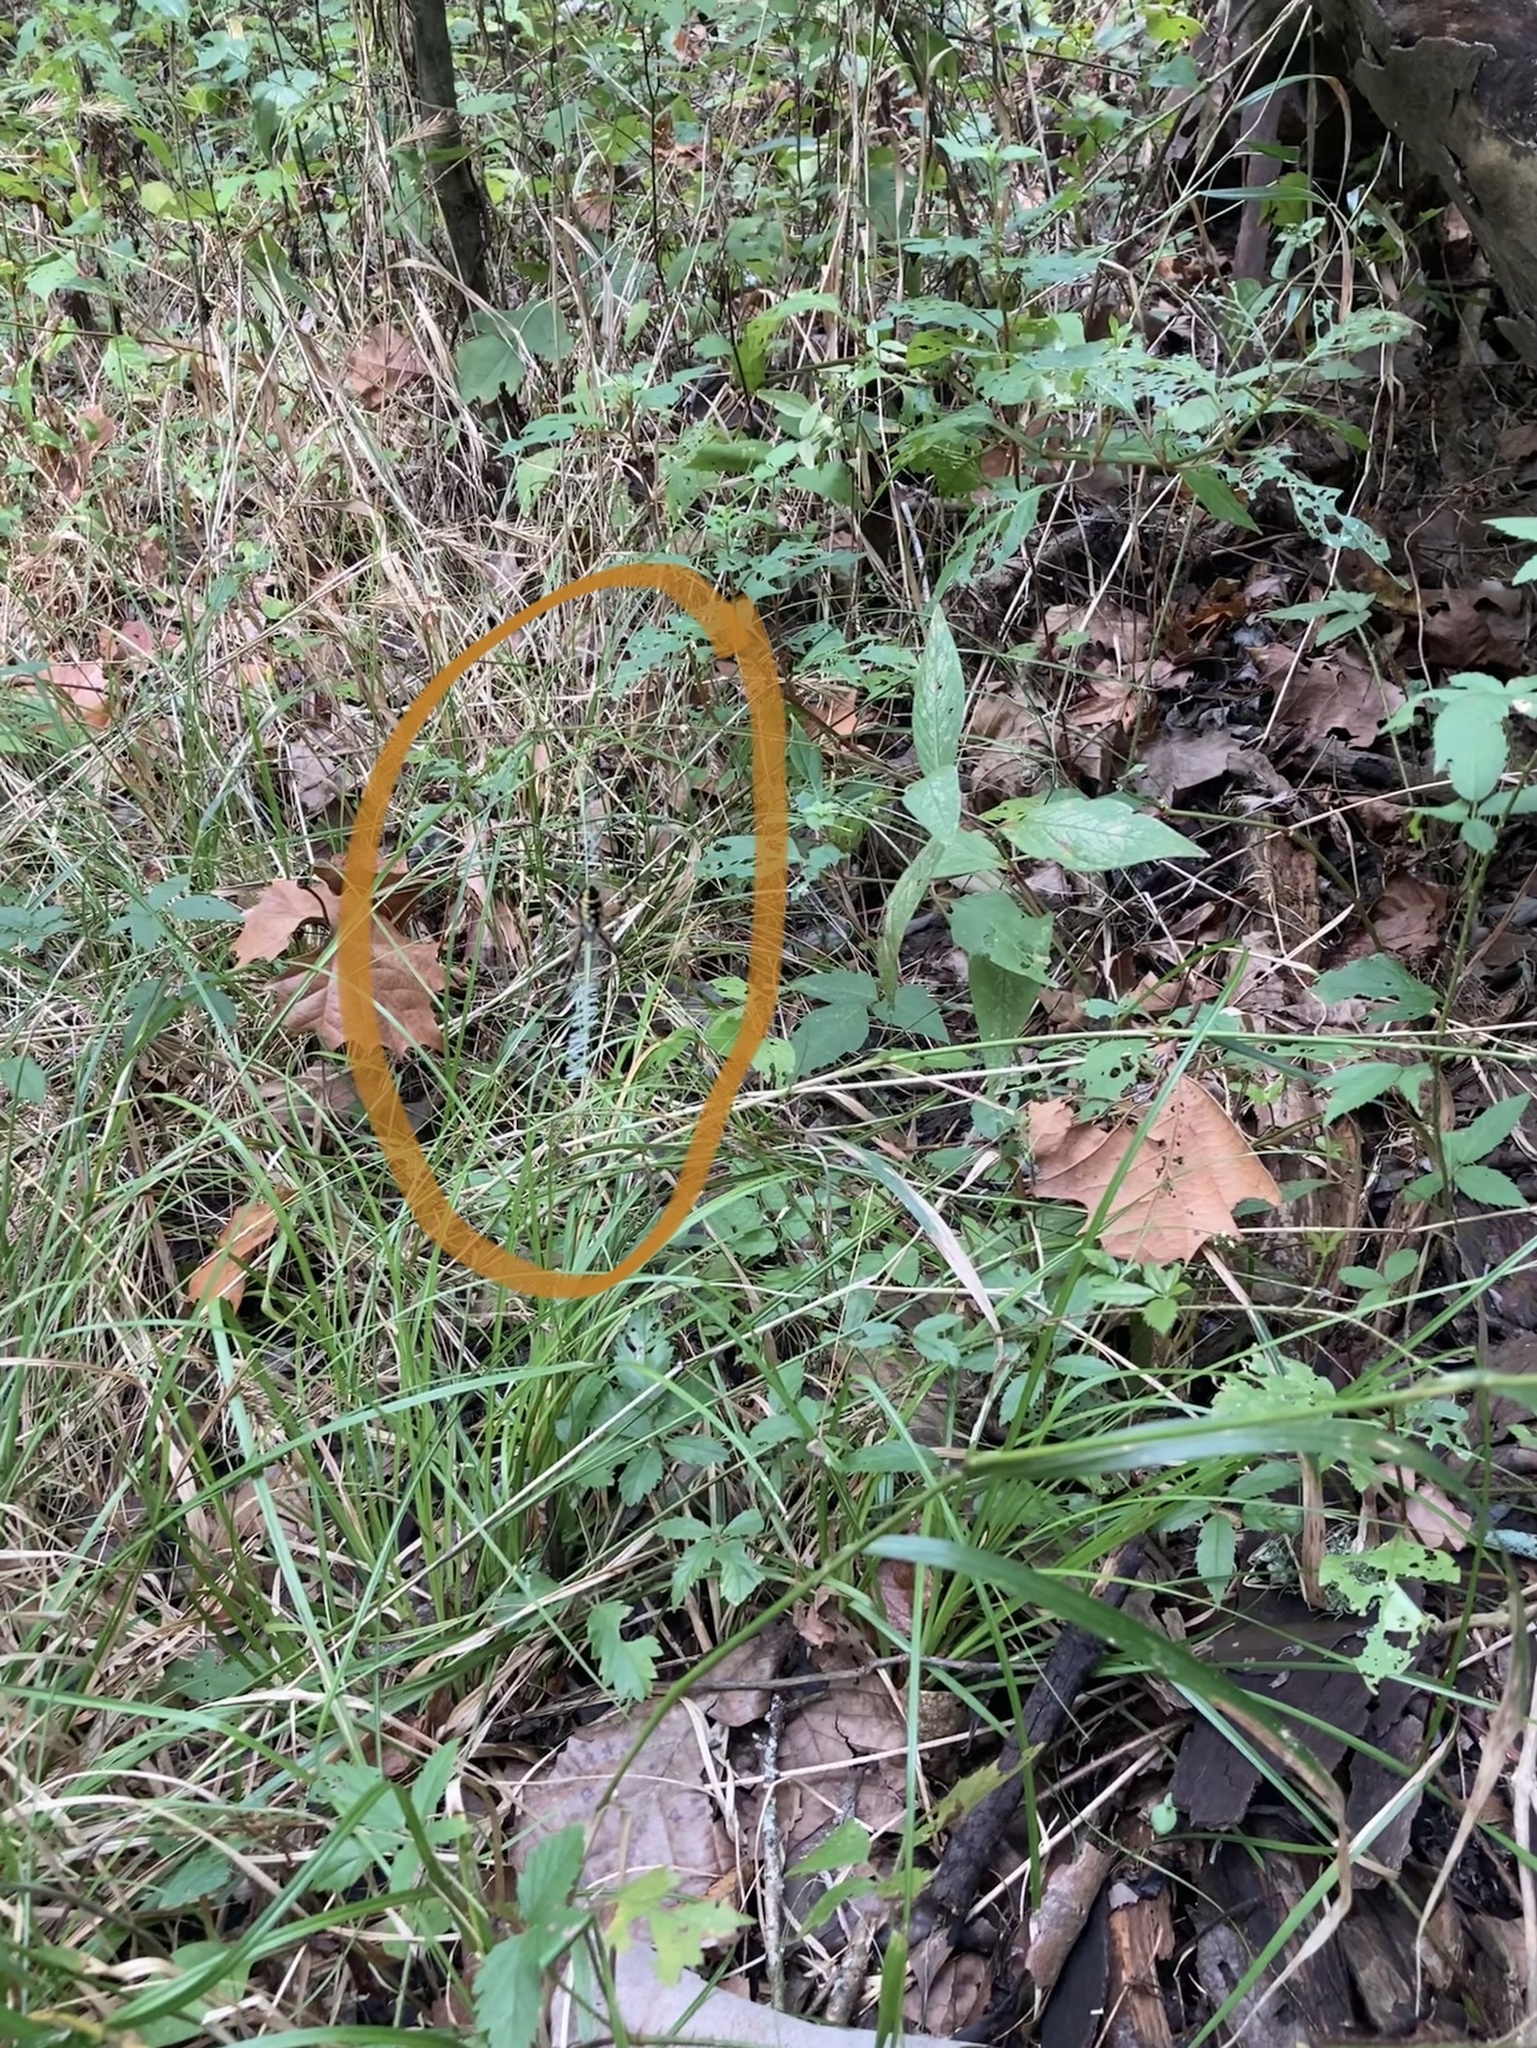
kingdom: Animalia
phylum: Arthropoda
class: Arachnida
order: Araneae
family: Araneidae
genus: Argiope
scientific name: Argiope aurantia
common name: Orb weavers
